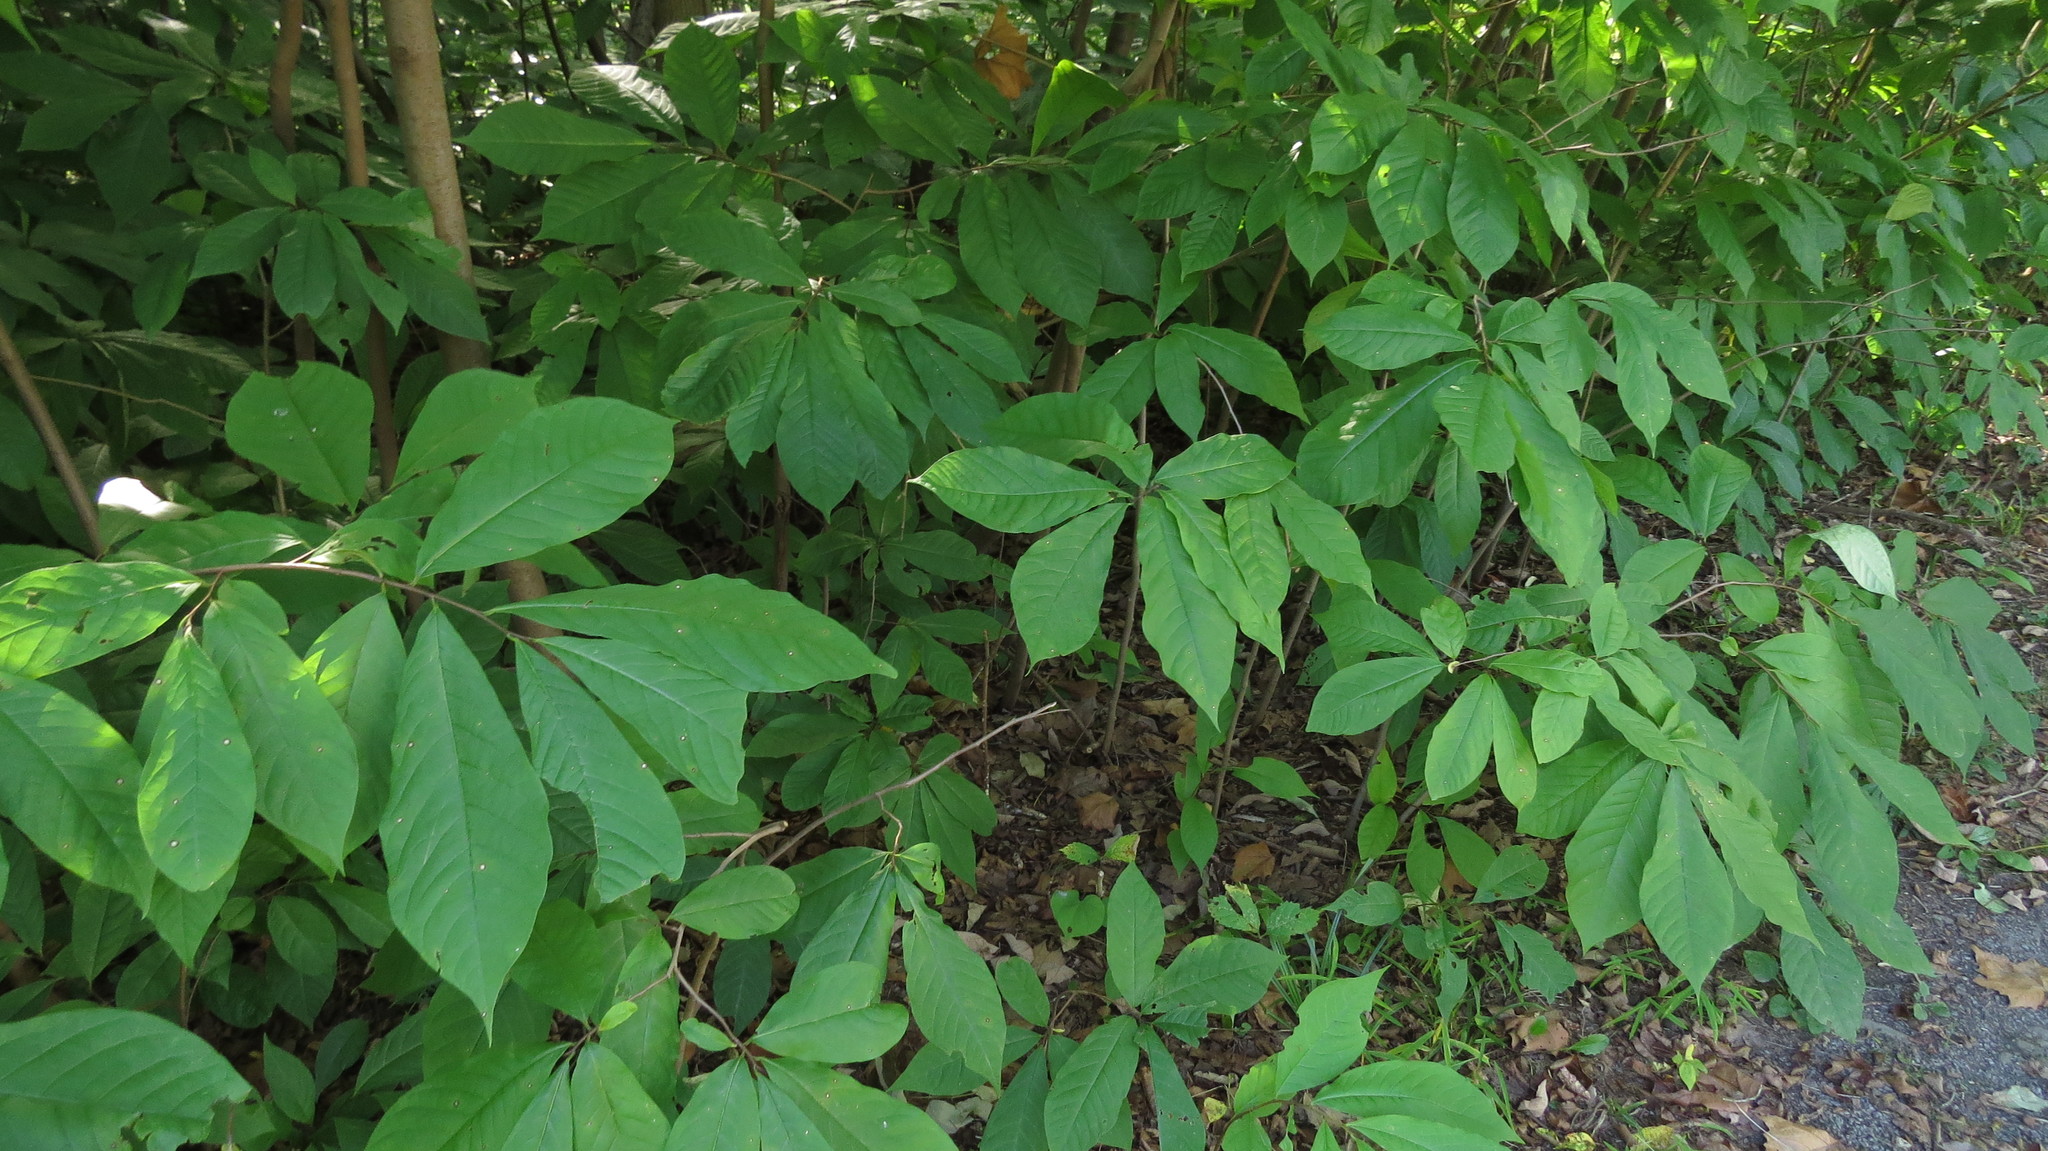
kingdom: Plantae
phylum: Tracheophyta
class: Magnoliopsida
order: Magnoliales
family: Annonaceae
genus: Asimina
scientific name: Asimina triloba
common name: Dog-banana
